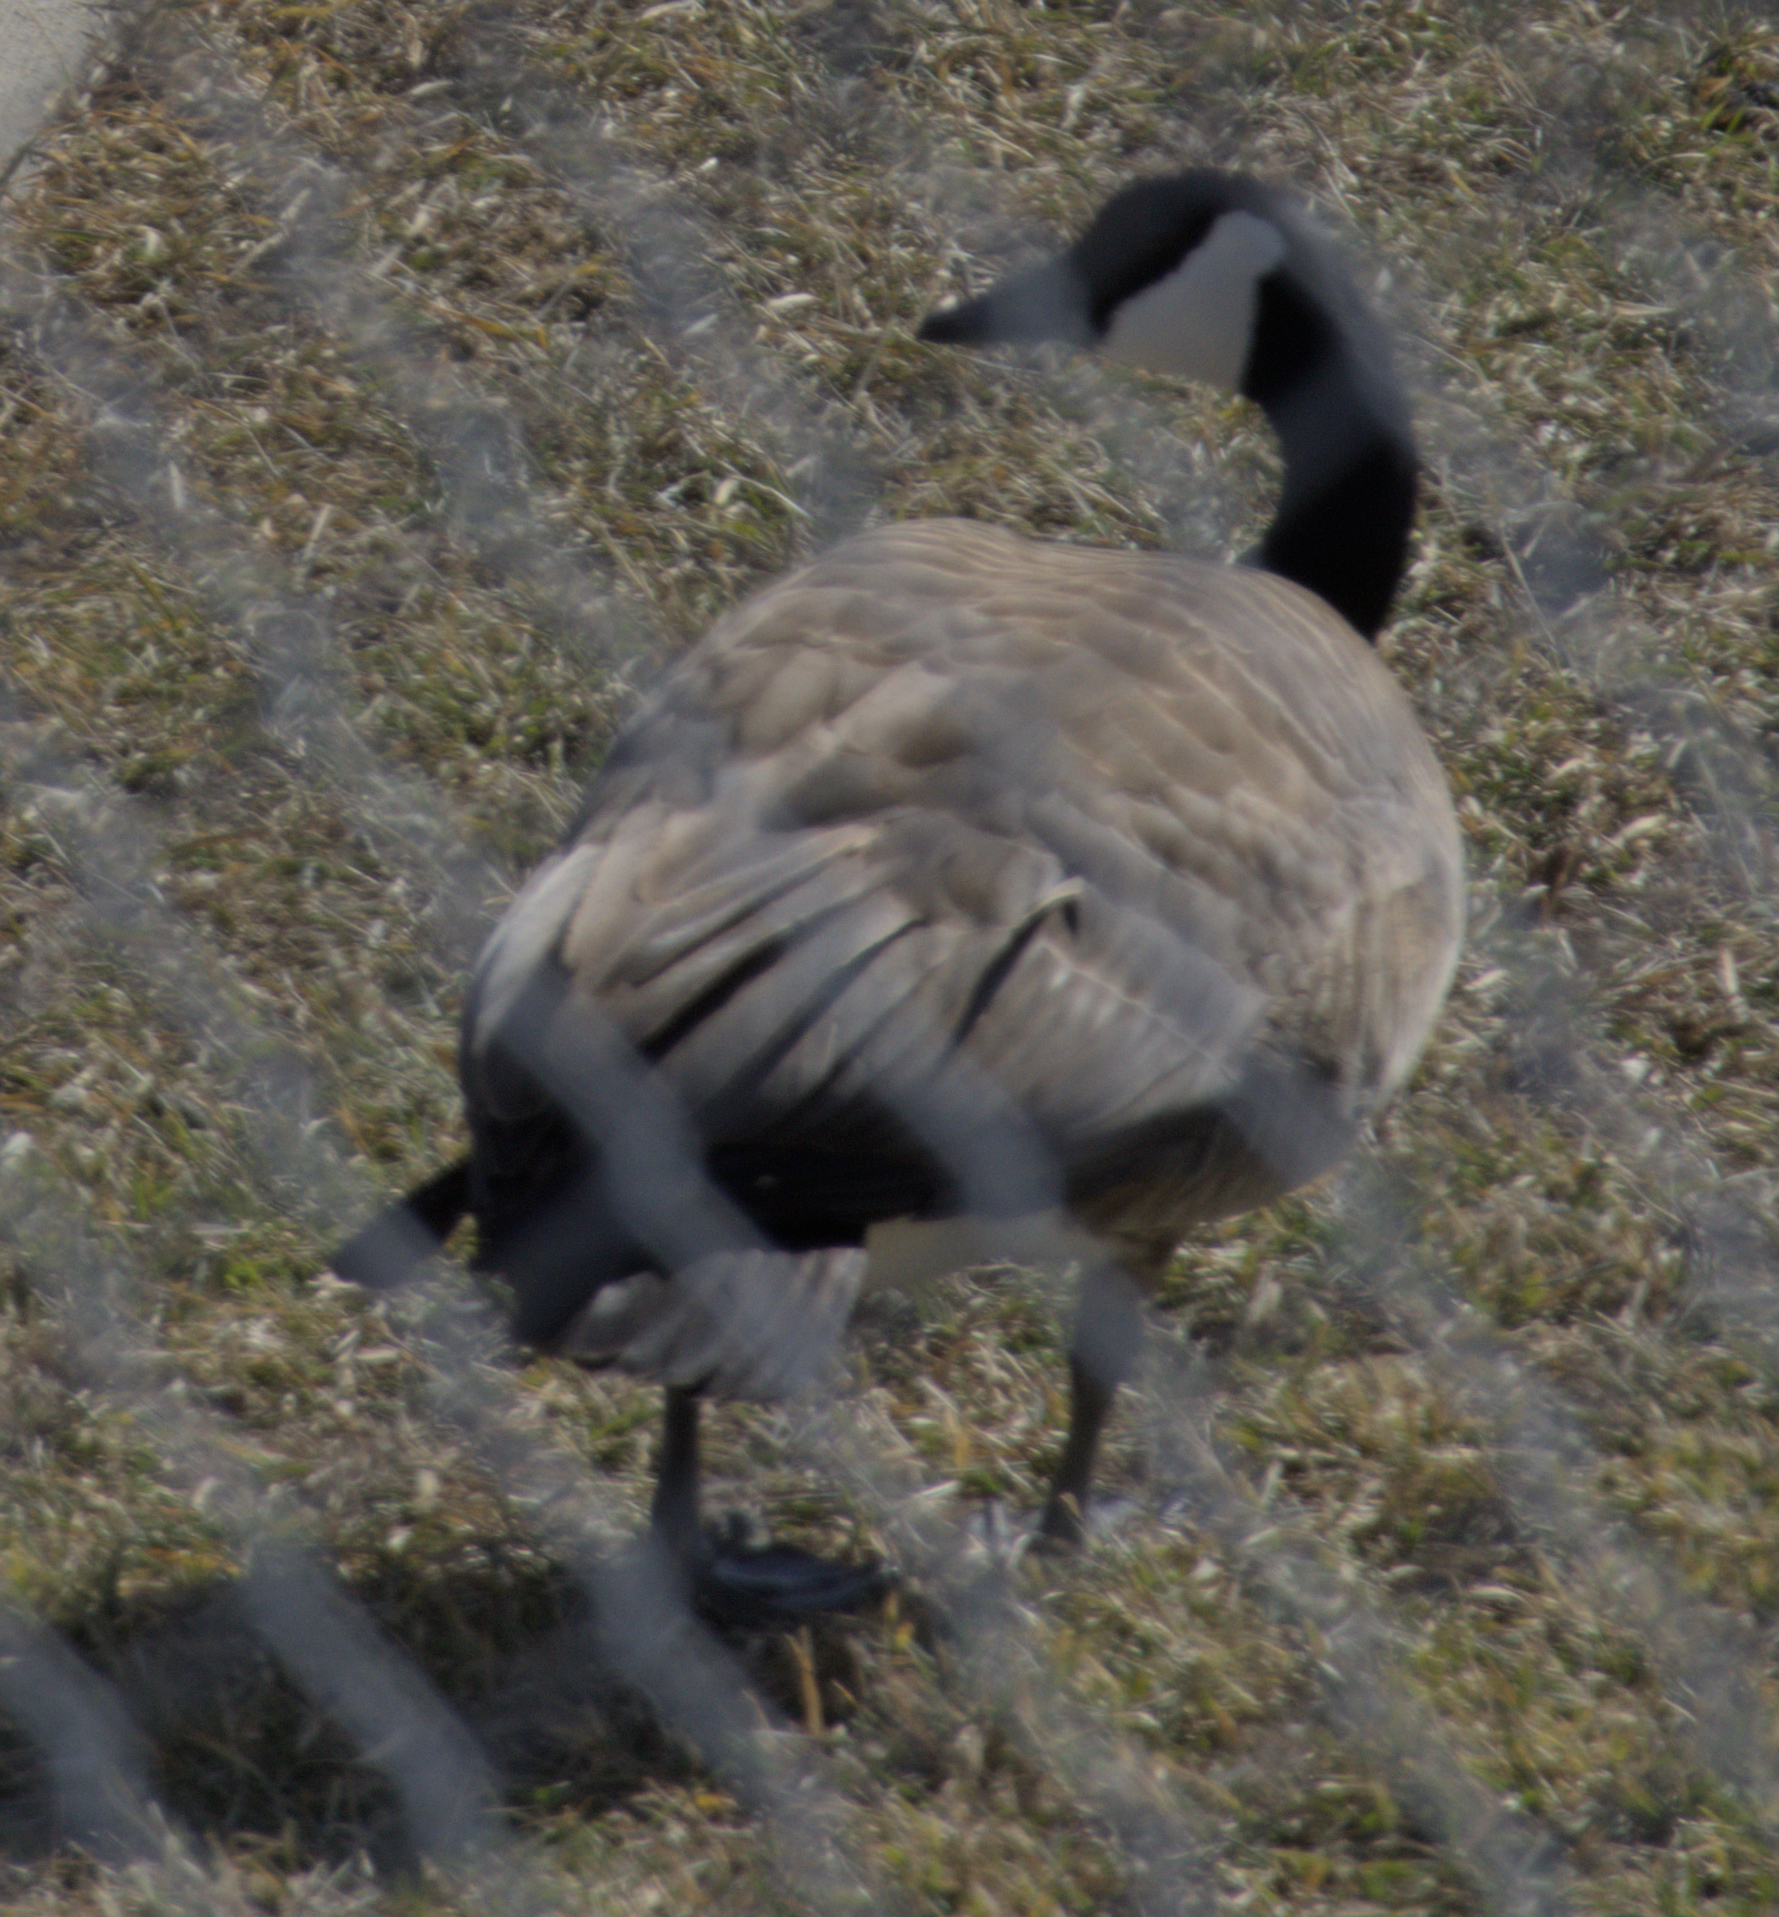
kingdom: Animalia
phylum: Chordata
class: Aves
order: Anseriformes
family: Anatidae
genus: Branta
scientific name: Branta canadensis
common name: Canada goose
